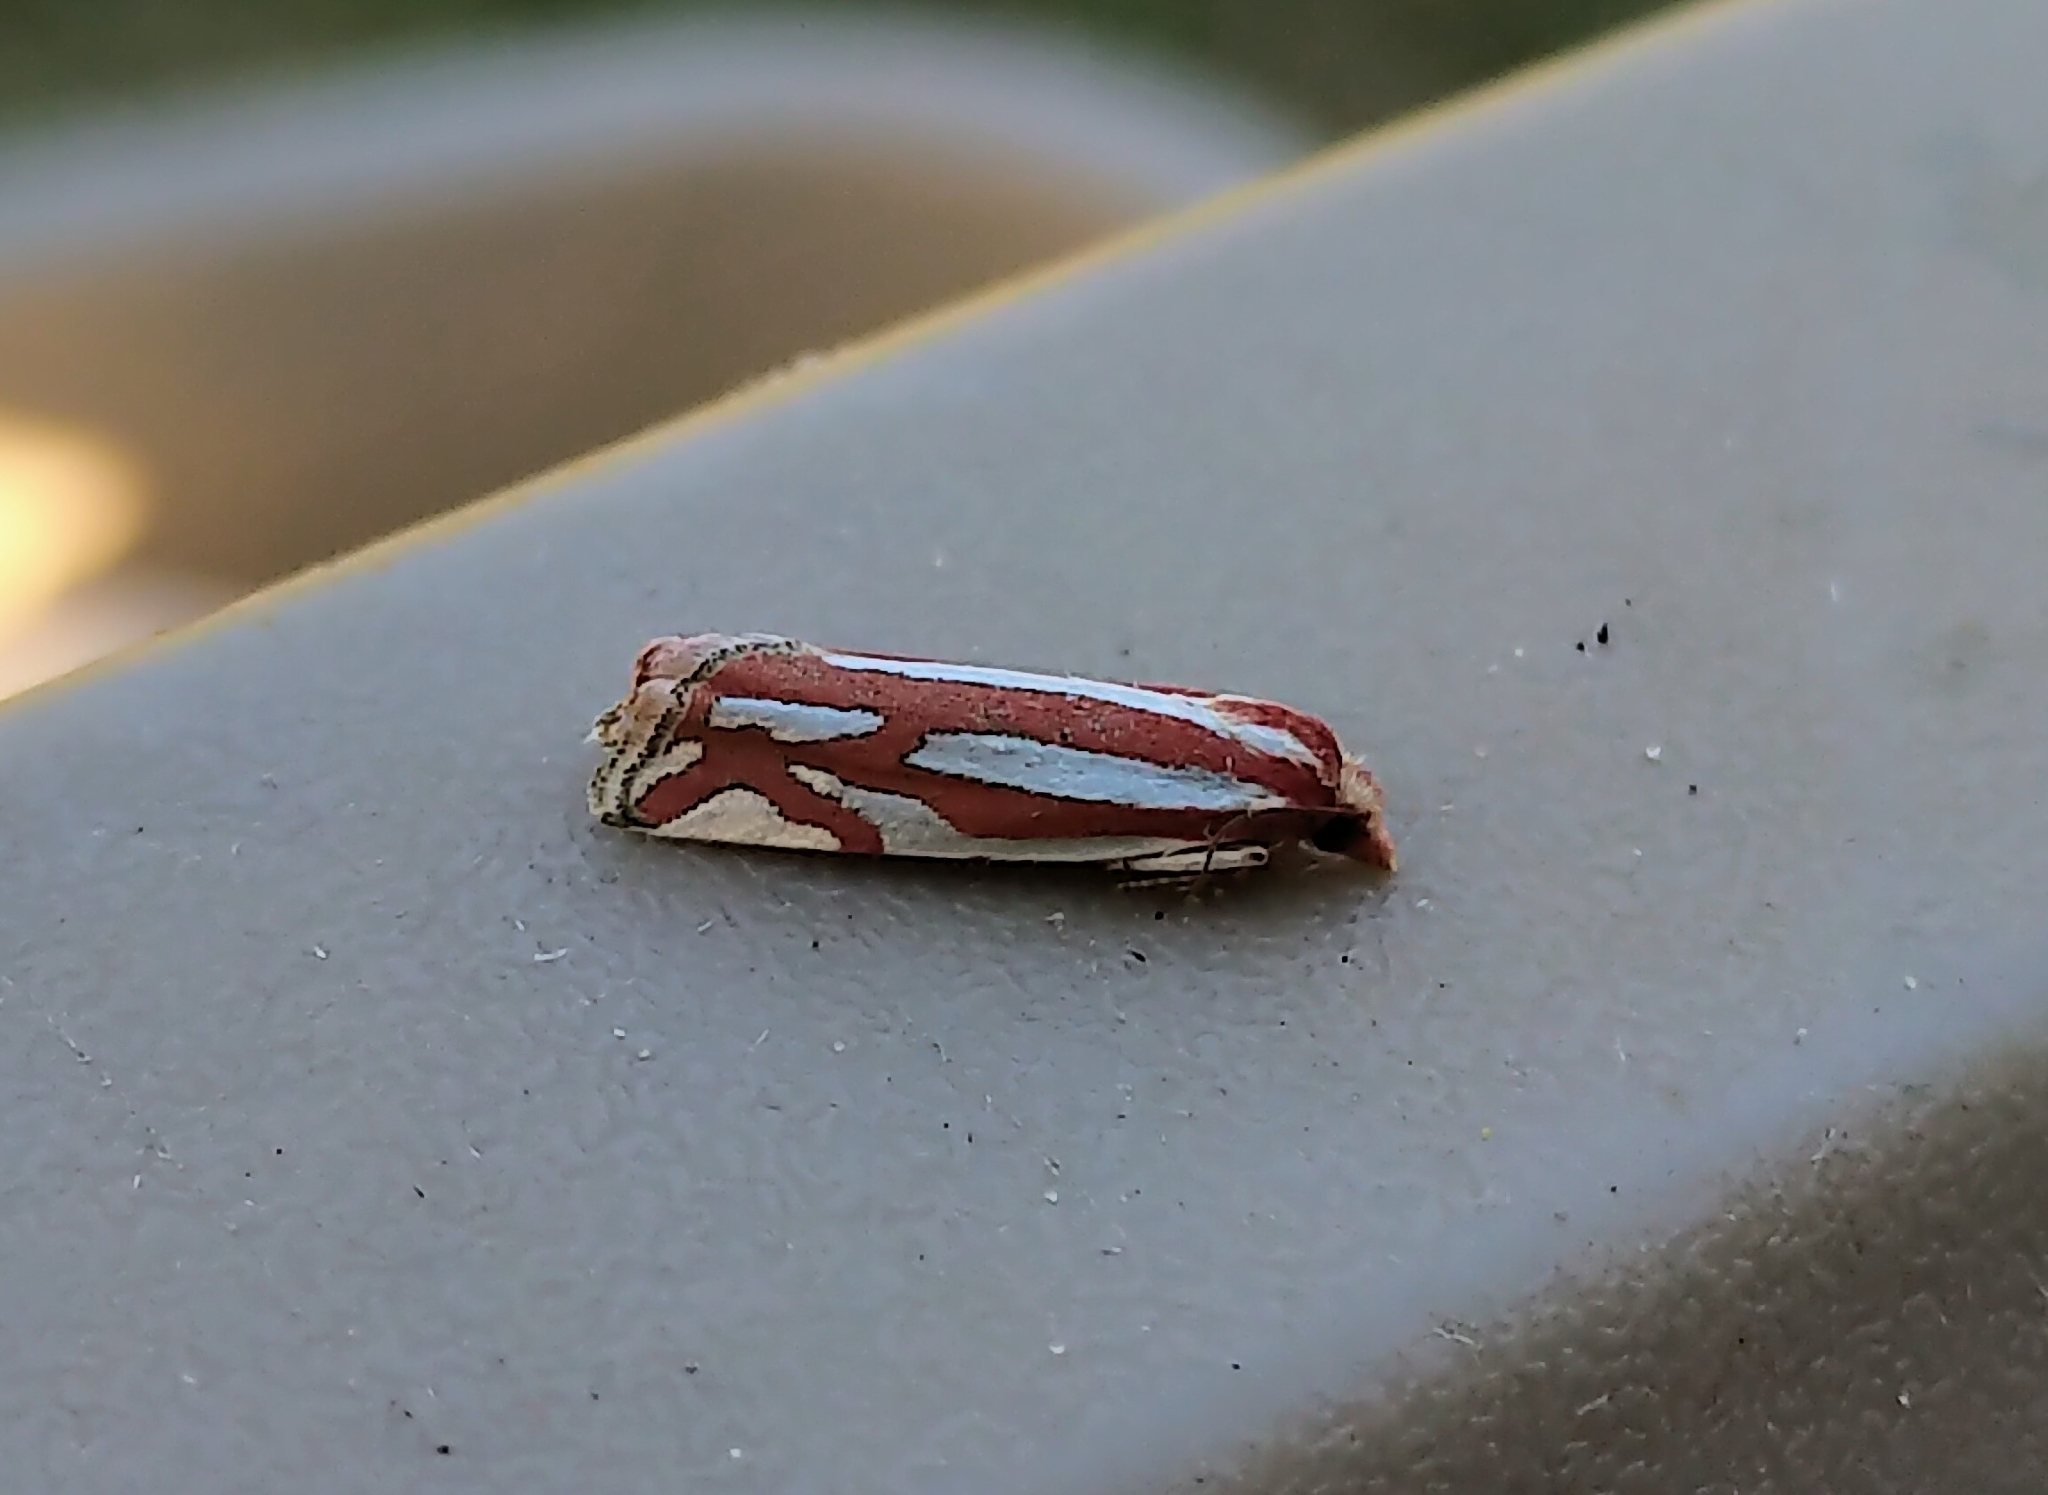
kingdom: Animalia
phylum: Arthropoda
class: Insecta
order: Lepidoptera
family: Tortricidae
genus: Pelochrista
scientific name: Pelochrista fernaldana
